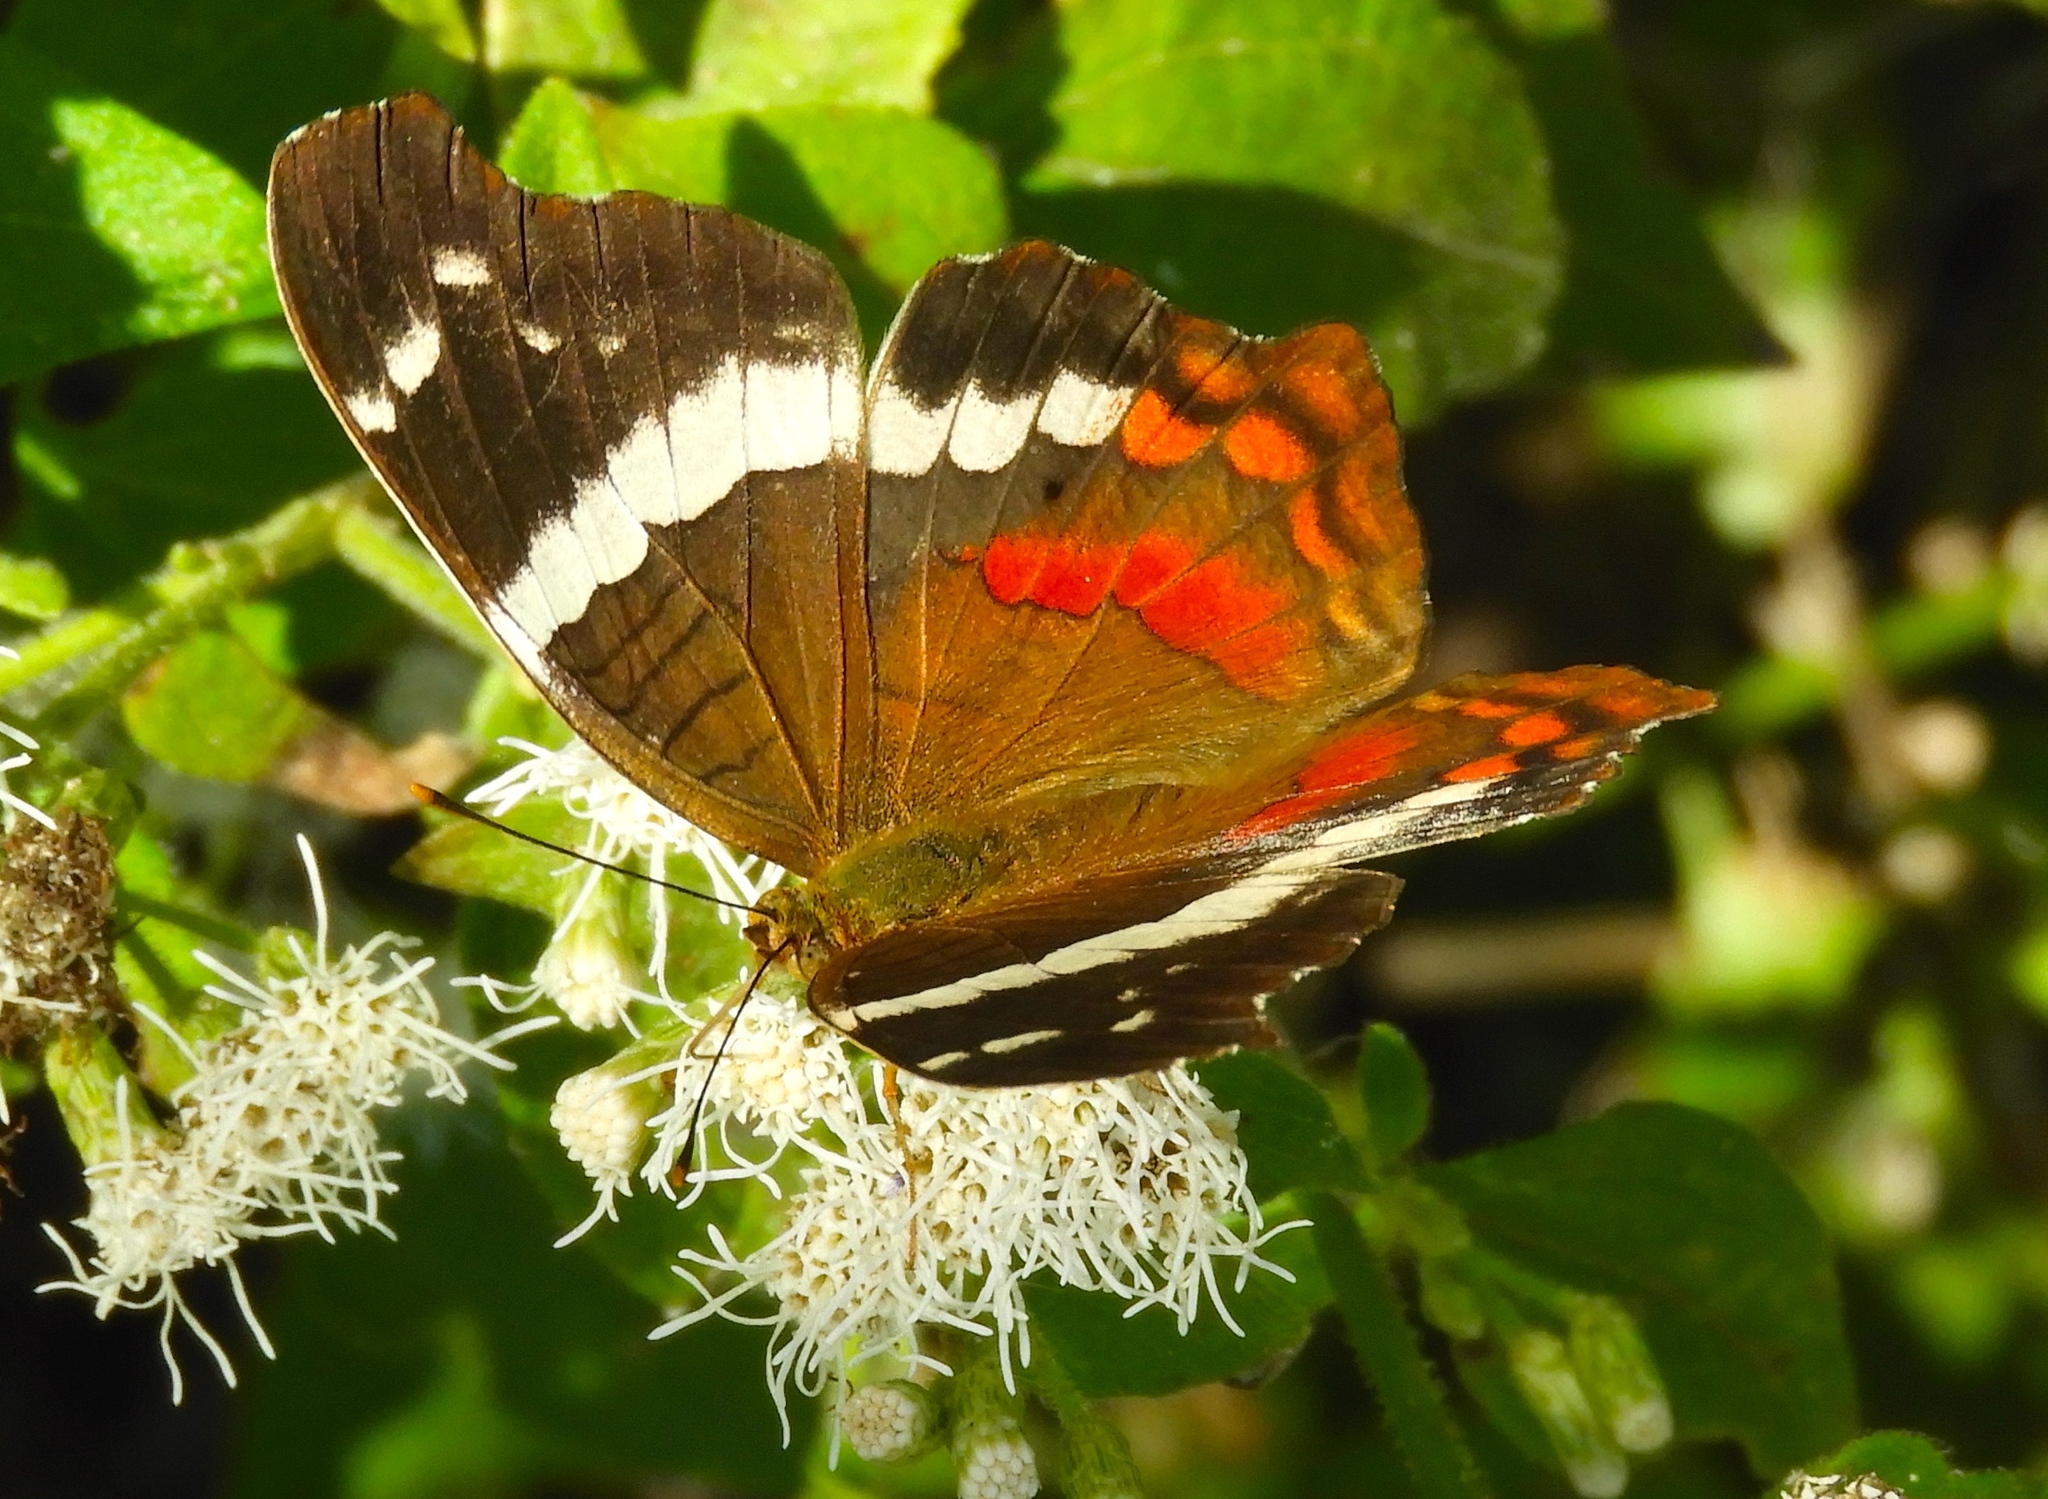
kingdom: Animalia
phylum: Arthropoda
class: Insecta
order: Lepidoptera
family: Nymphalidae
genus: Anartia
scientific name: Anartia fatima
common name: Banded peacock
